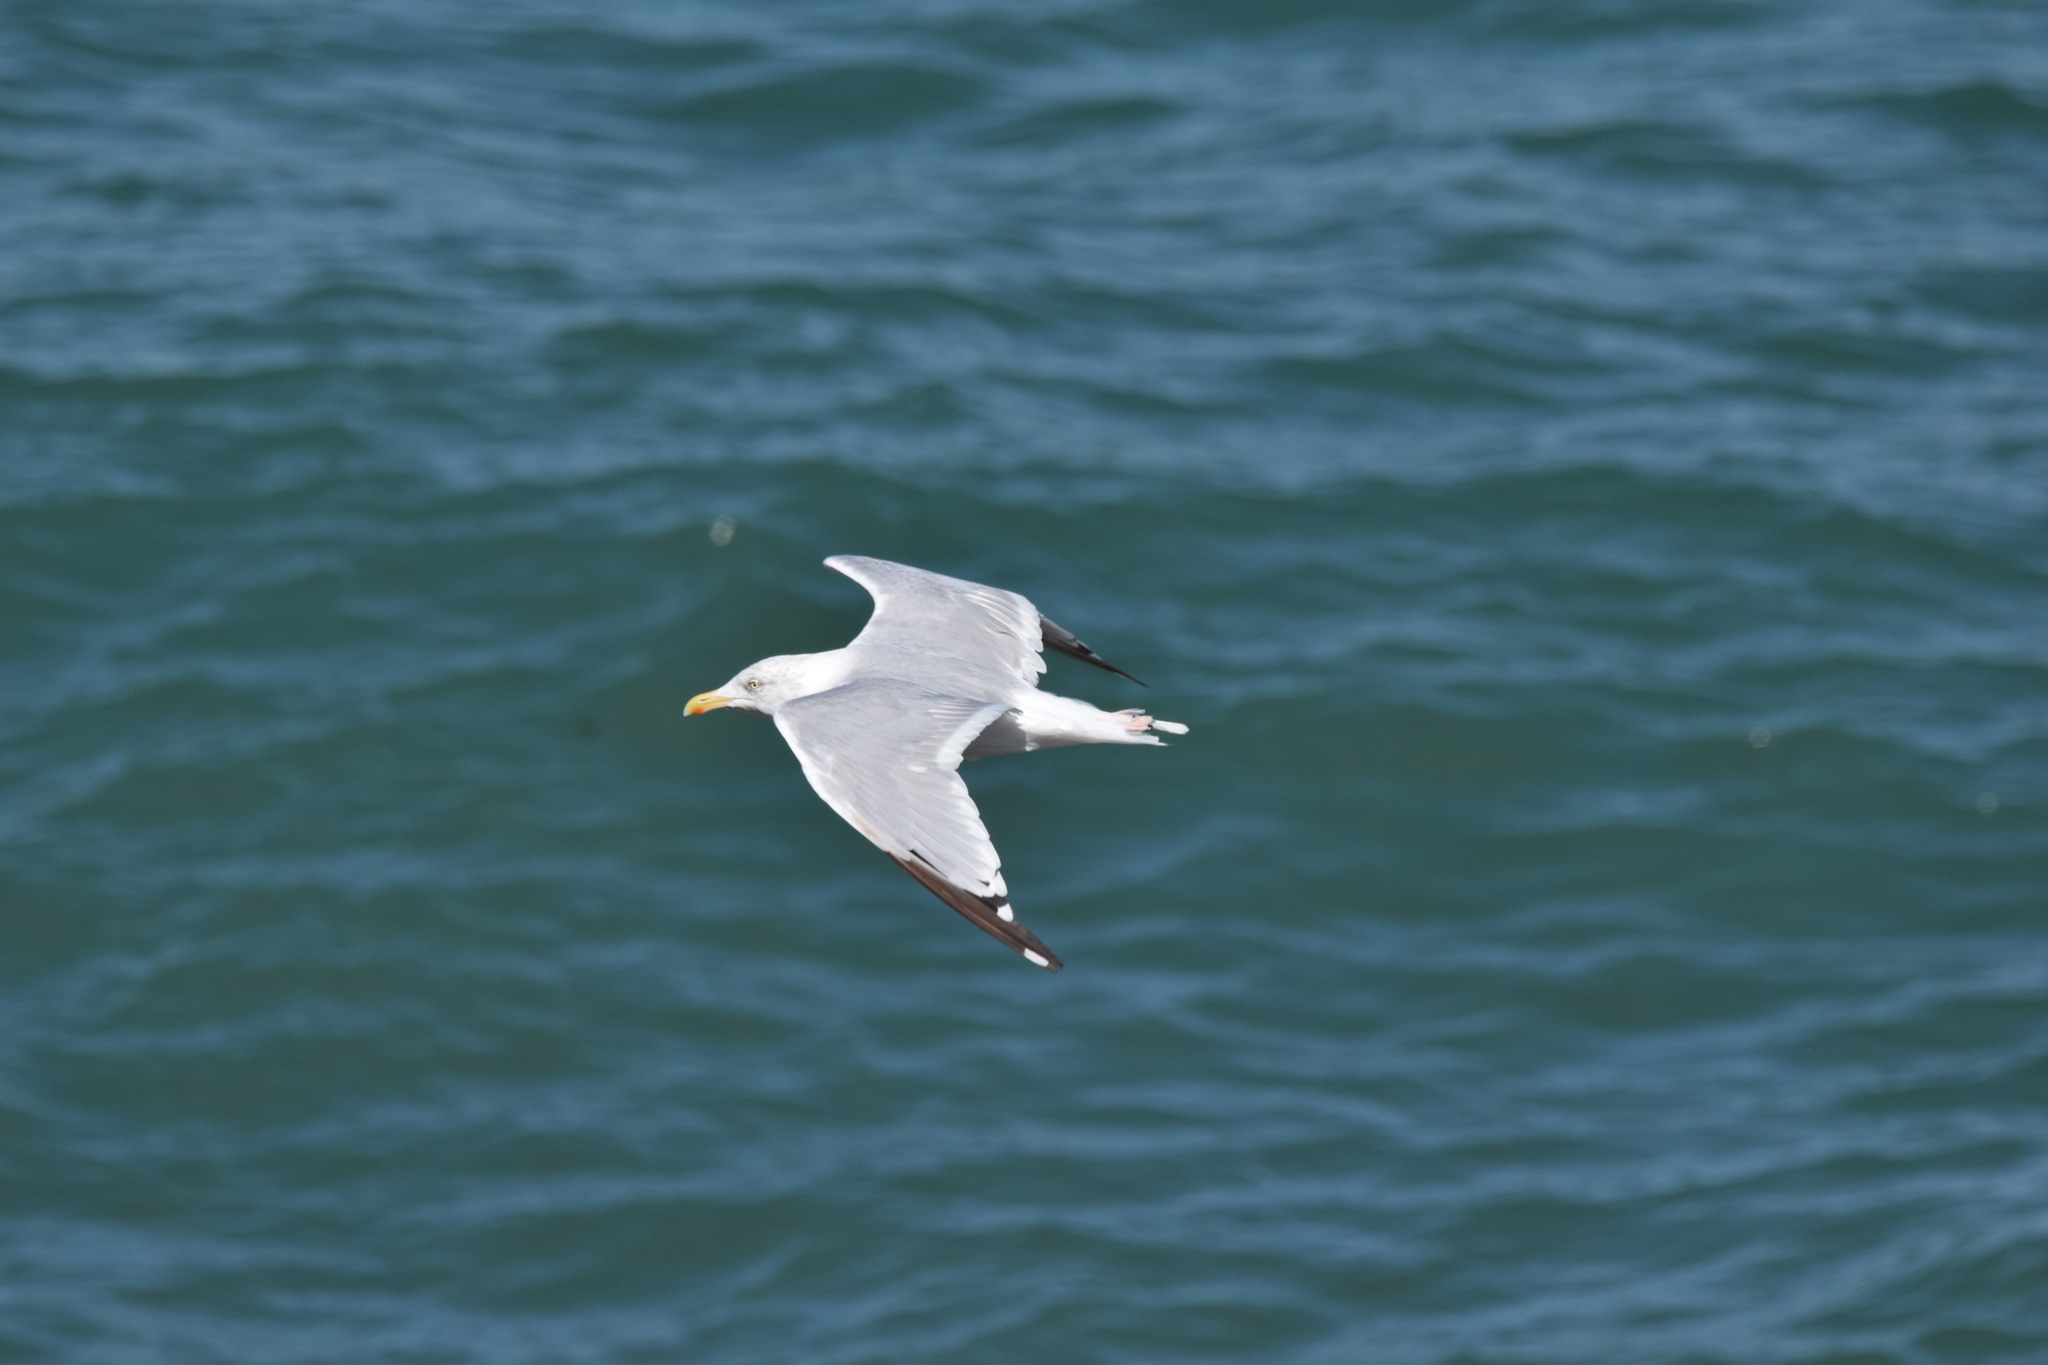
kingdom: Animalia
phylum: Chordata
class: Aves
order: Charadriiformes
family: Laridae
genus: Larus
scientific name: Larus argentatus
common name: Herring gull
